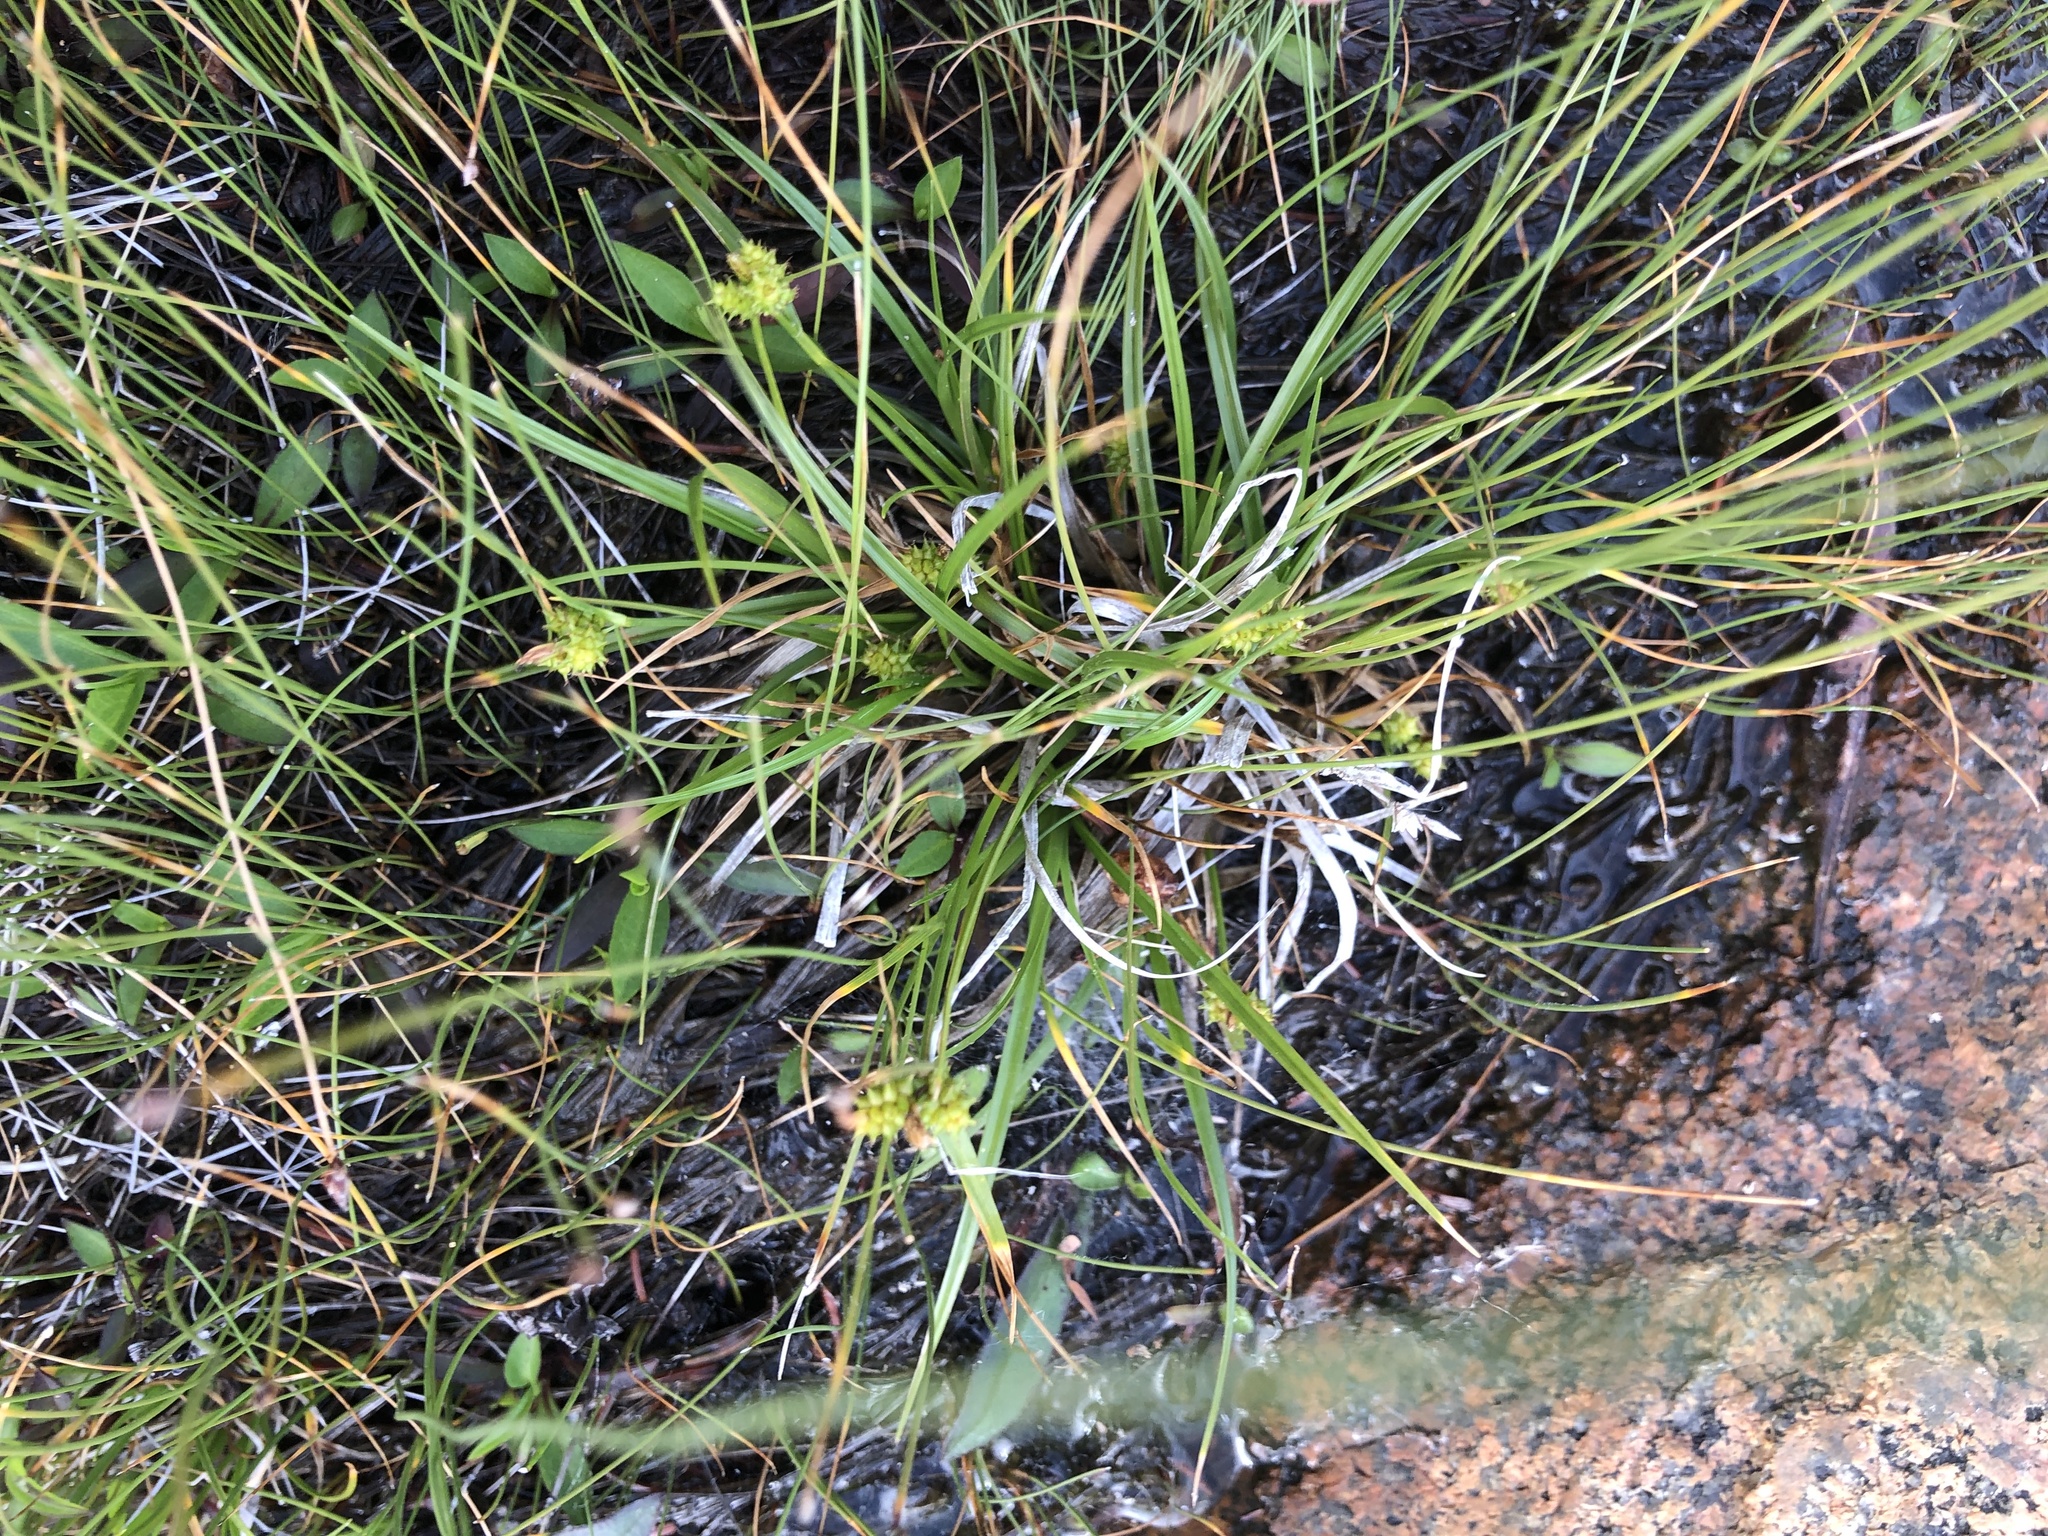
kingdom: Plantae
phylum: Tracheophyta
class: Liliopsida
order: Poales
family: Cyperaceae
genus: Carex
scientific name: Carex
